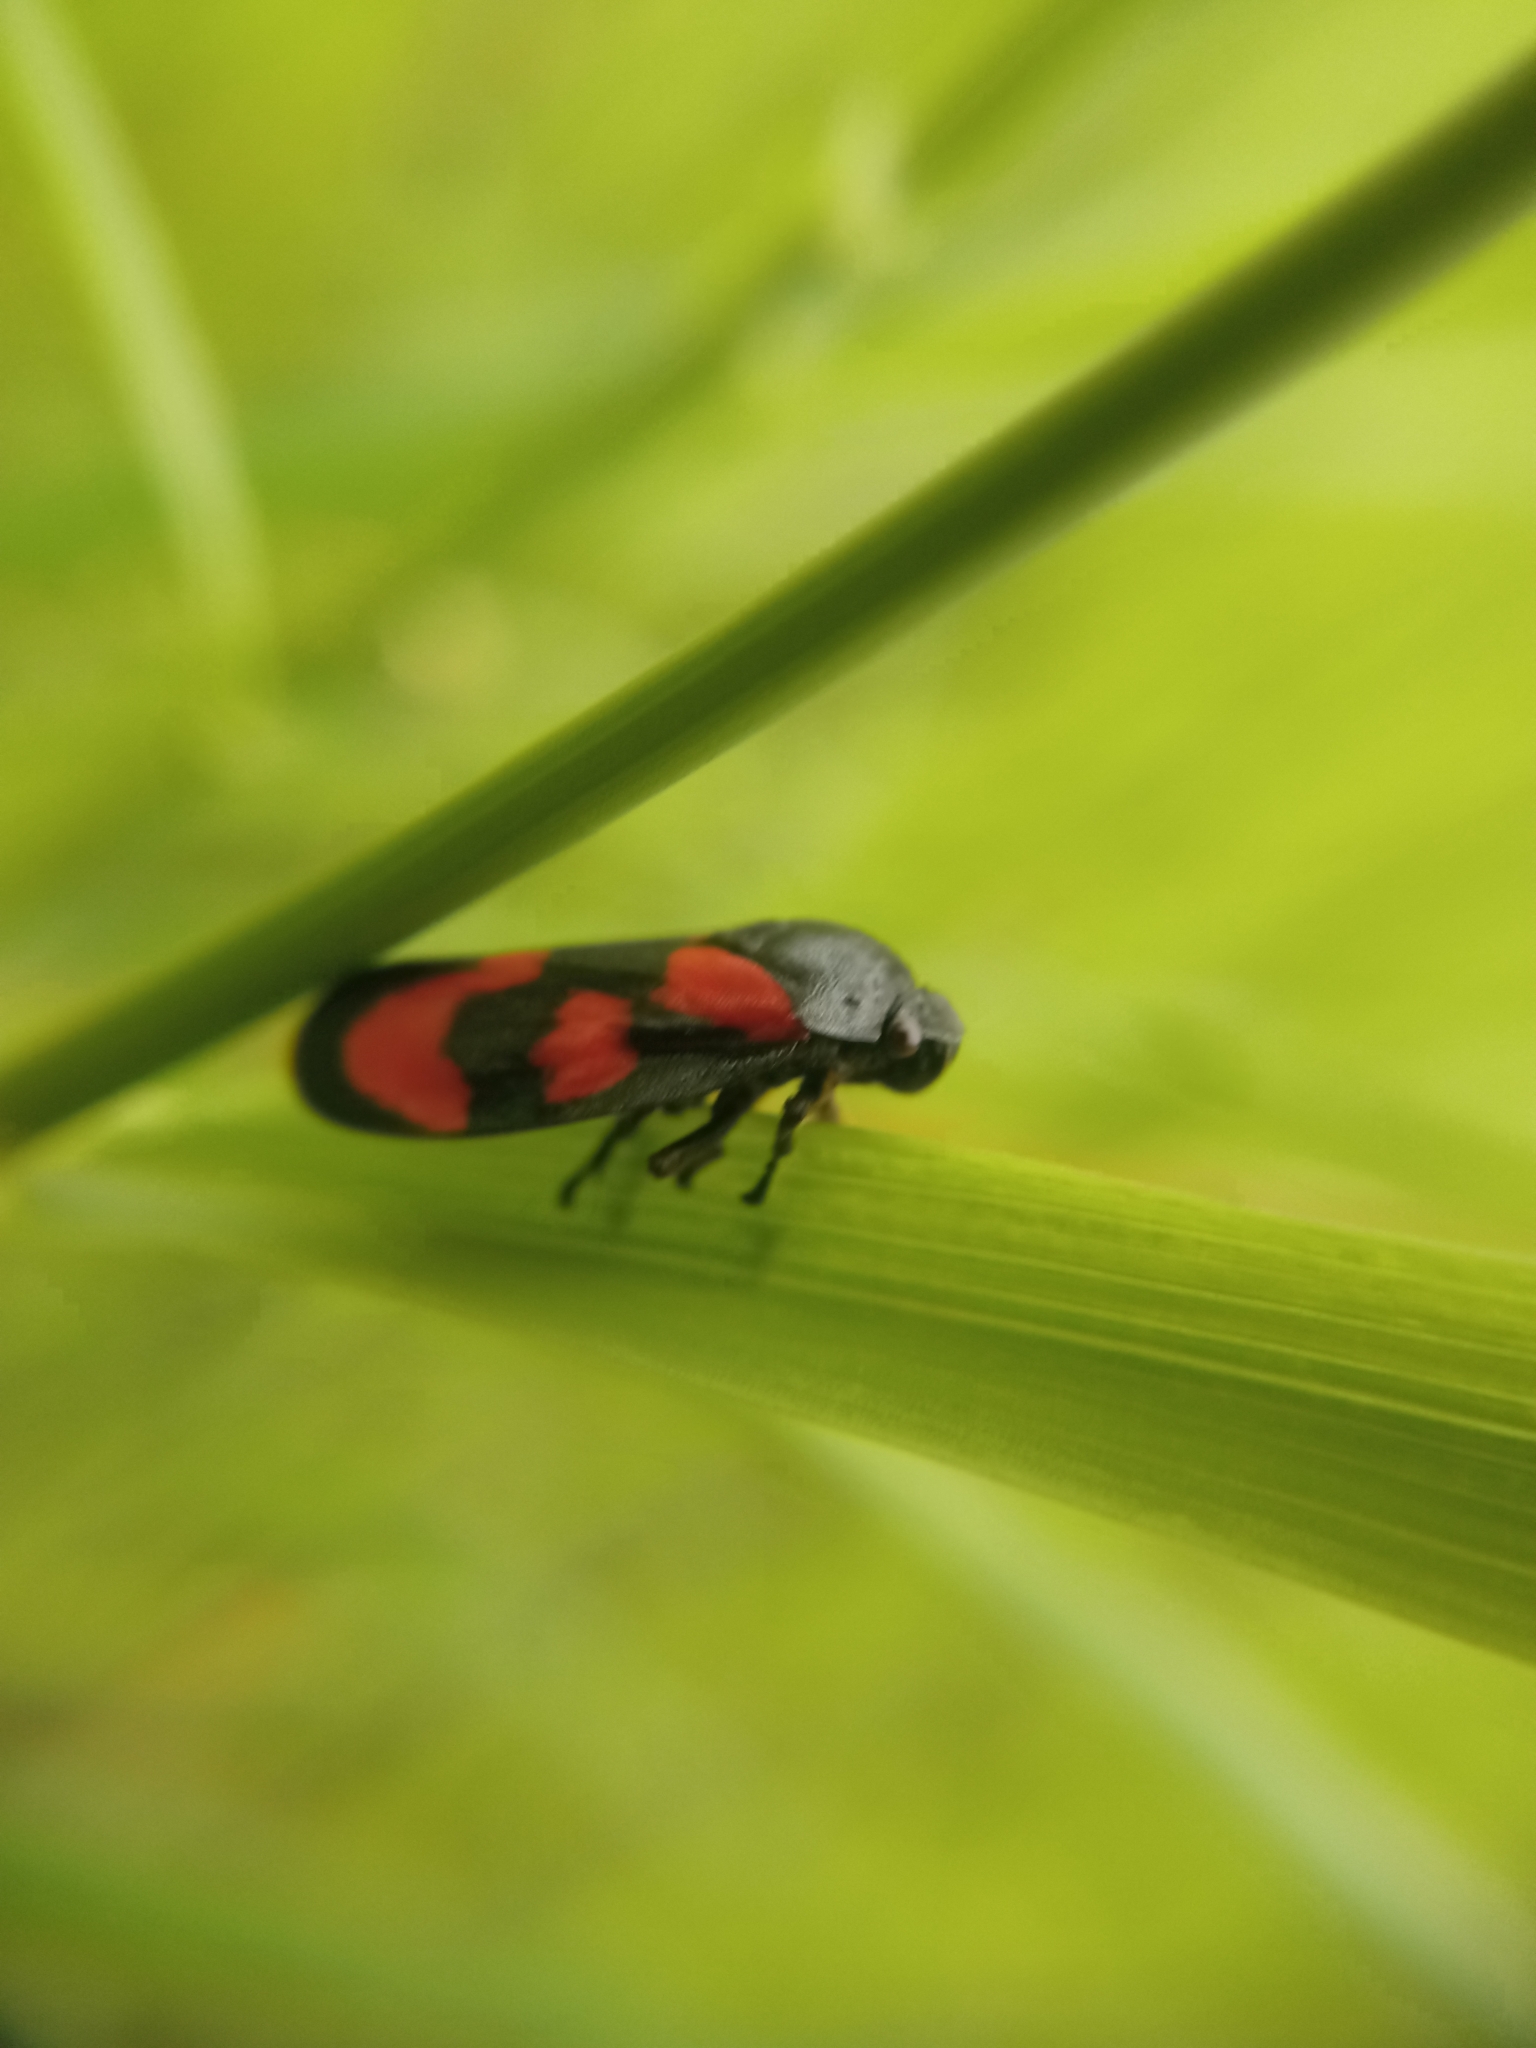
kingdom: Animalia
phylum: Arthropoda
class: Insecta
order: Hemiptera
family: Cercopidae
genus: Cercopis
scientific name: Cercopis vulnerata
